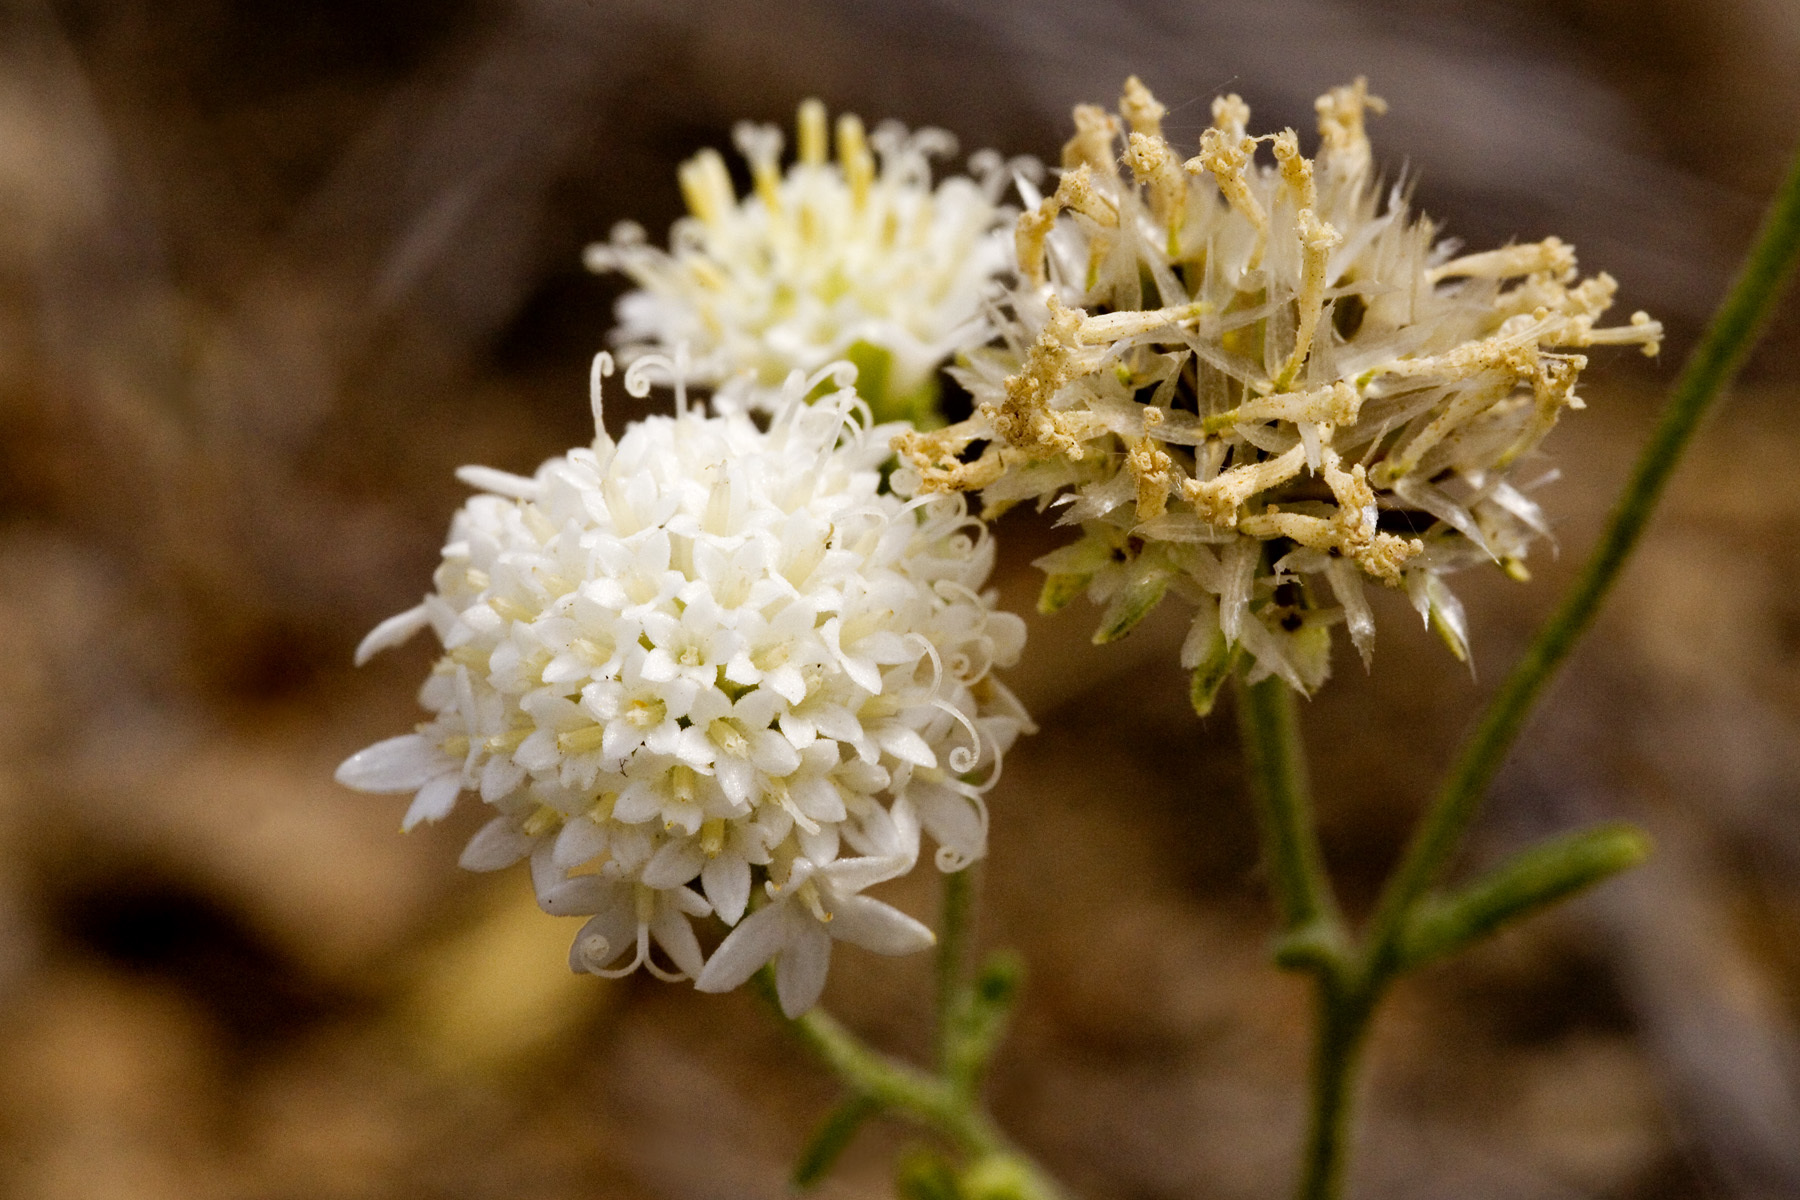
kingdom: Plantae
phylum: Tracheophyta
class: Magnoliopsida
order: Asterales
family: Asteraceae
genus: Chaenactis
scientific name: Chaenactis stevioides
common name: Desert pincushion
